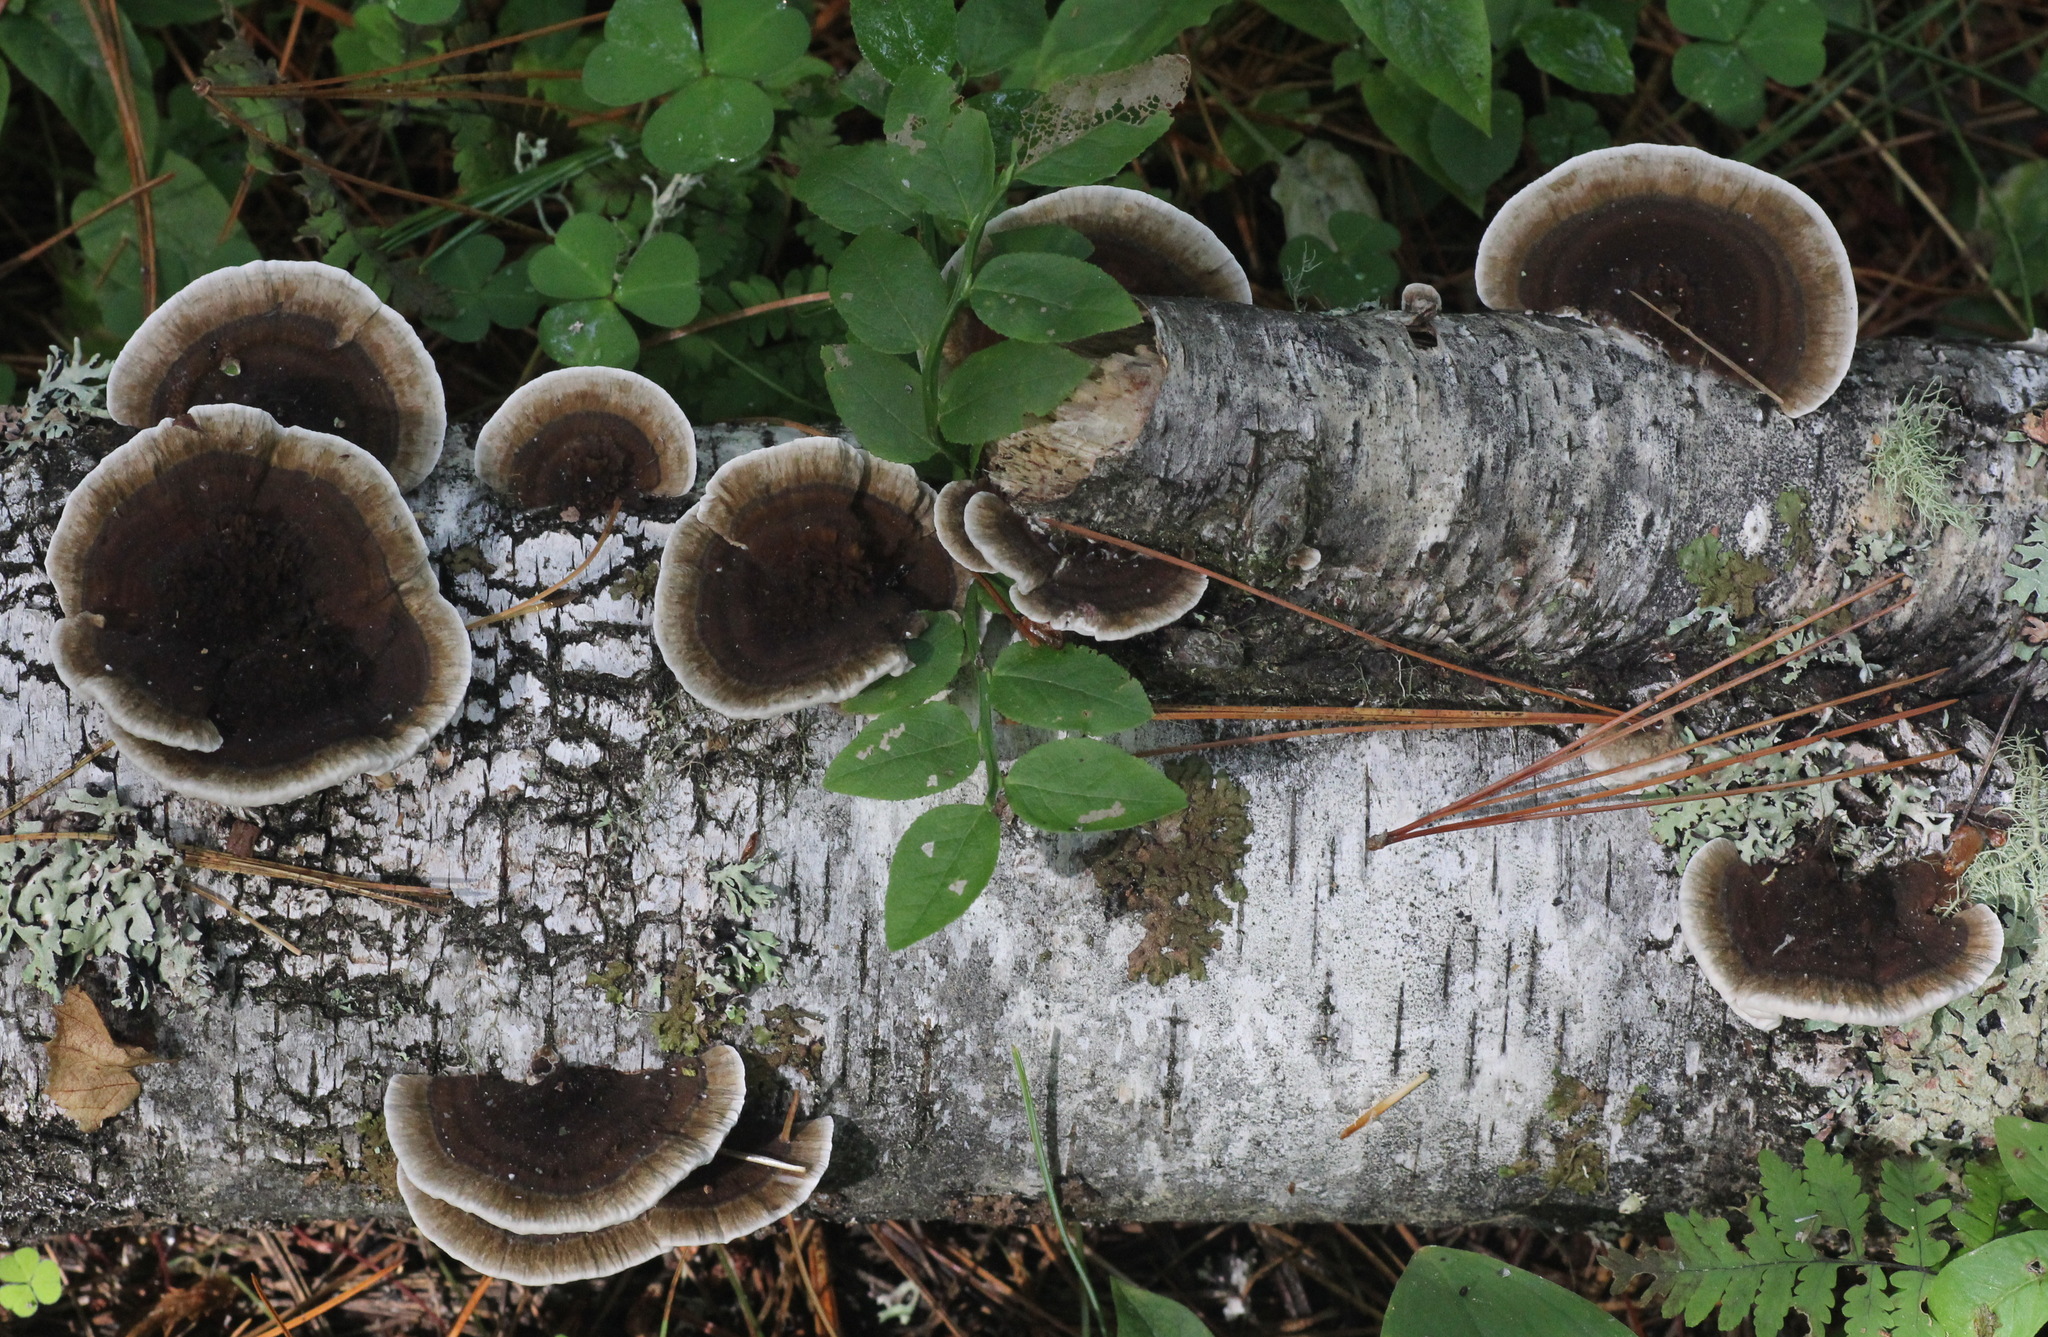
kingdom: Fungi
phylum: Basidiomycota
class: Agaricomycetes
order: Polyporales
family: Polyporaceae
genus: Daedaleopsis
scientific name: Daedaleopsis confragosa
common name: Blushing bracket
